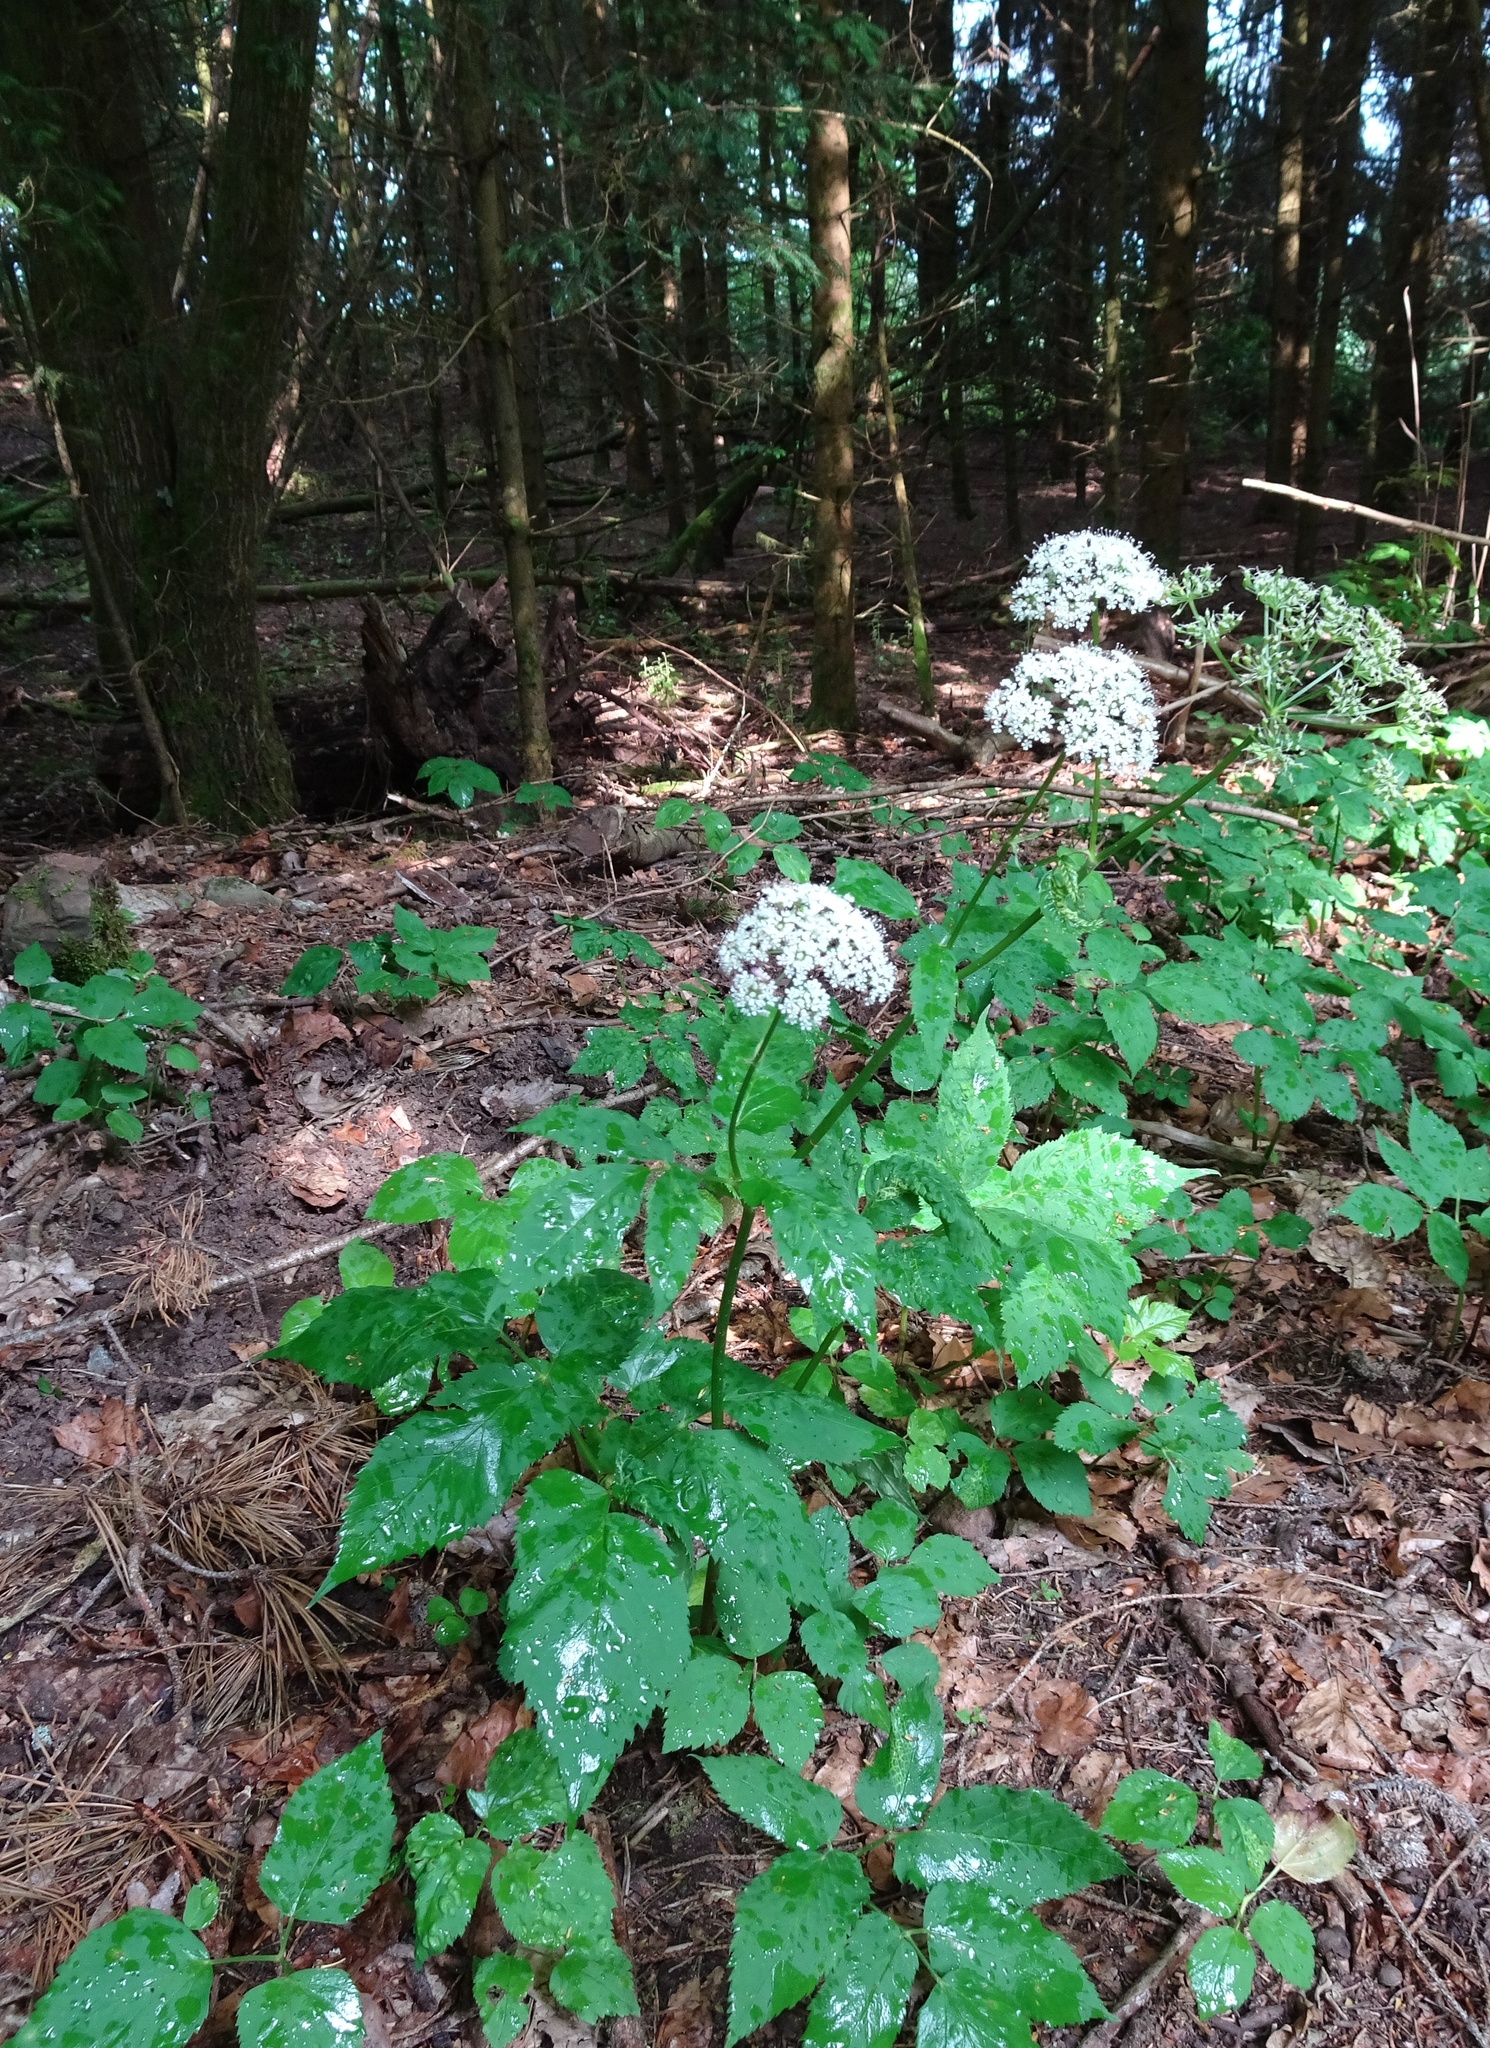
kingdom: Plantae
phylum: Tracheophyta
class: Magnoliopsida
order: Apiales
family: Apiaceae
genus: Aegopodium
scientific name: Aegopodium podagraria
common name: Ground-elder
